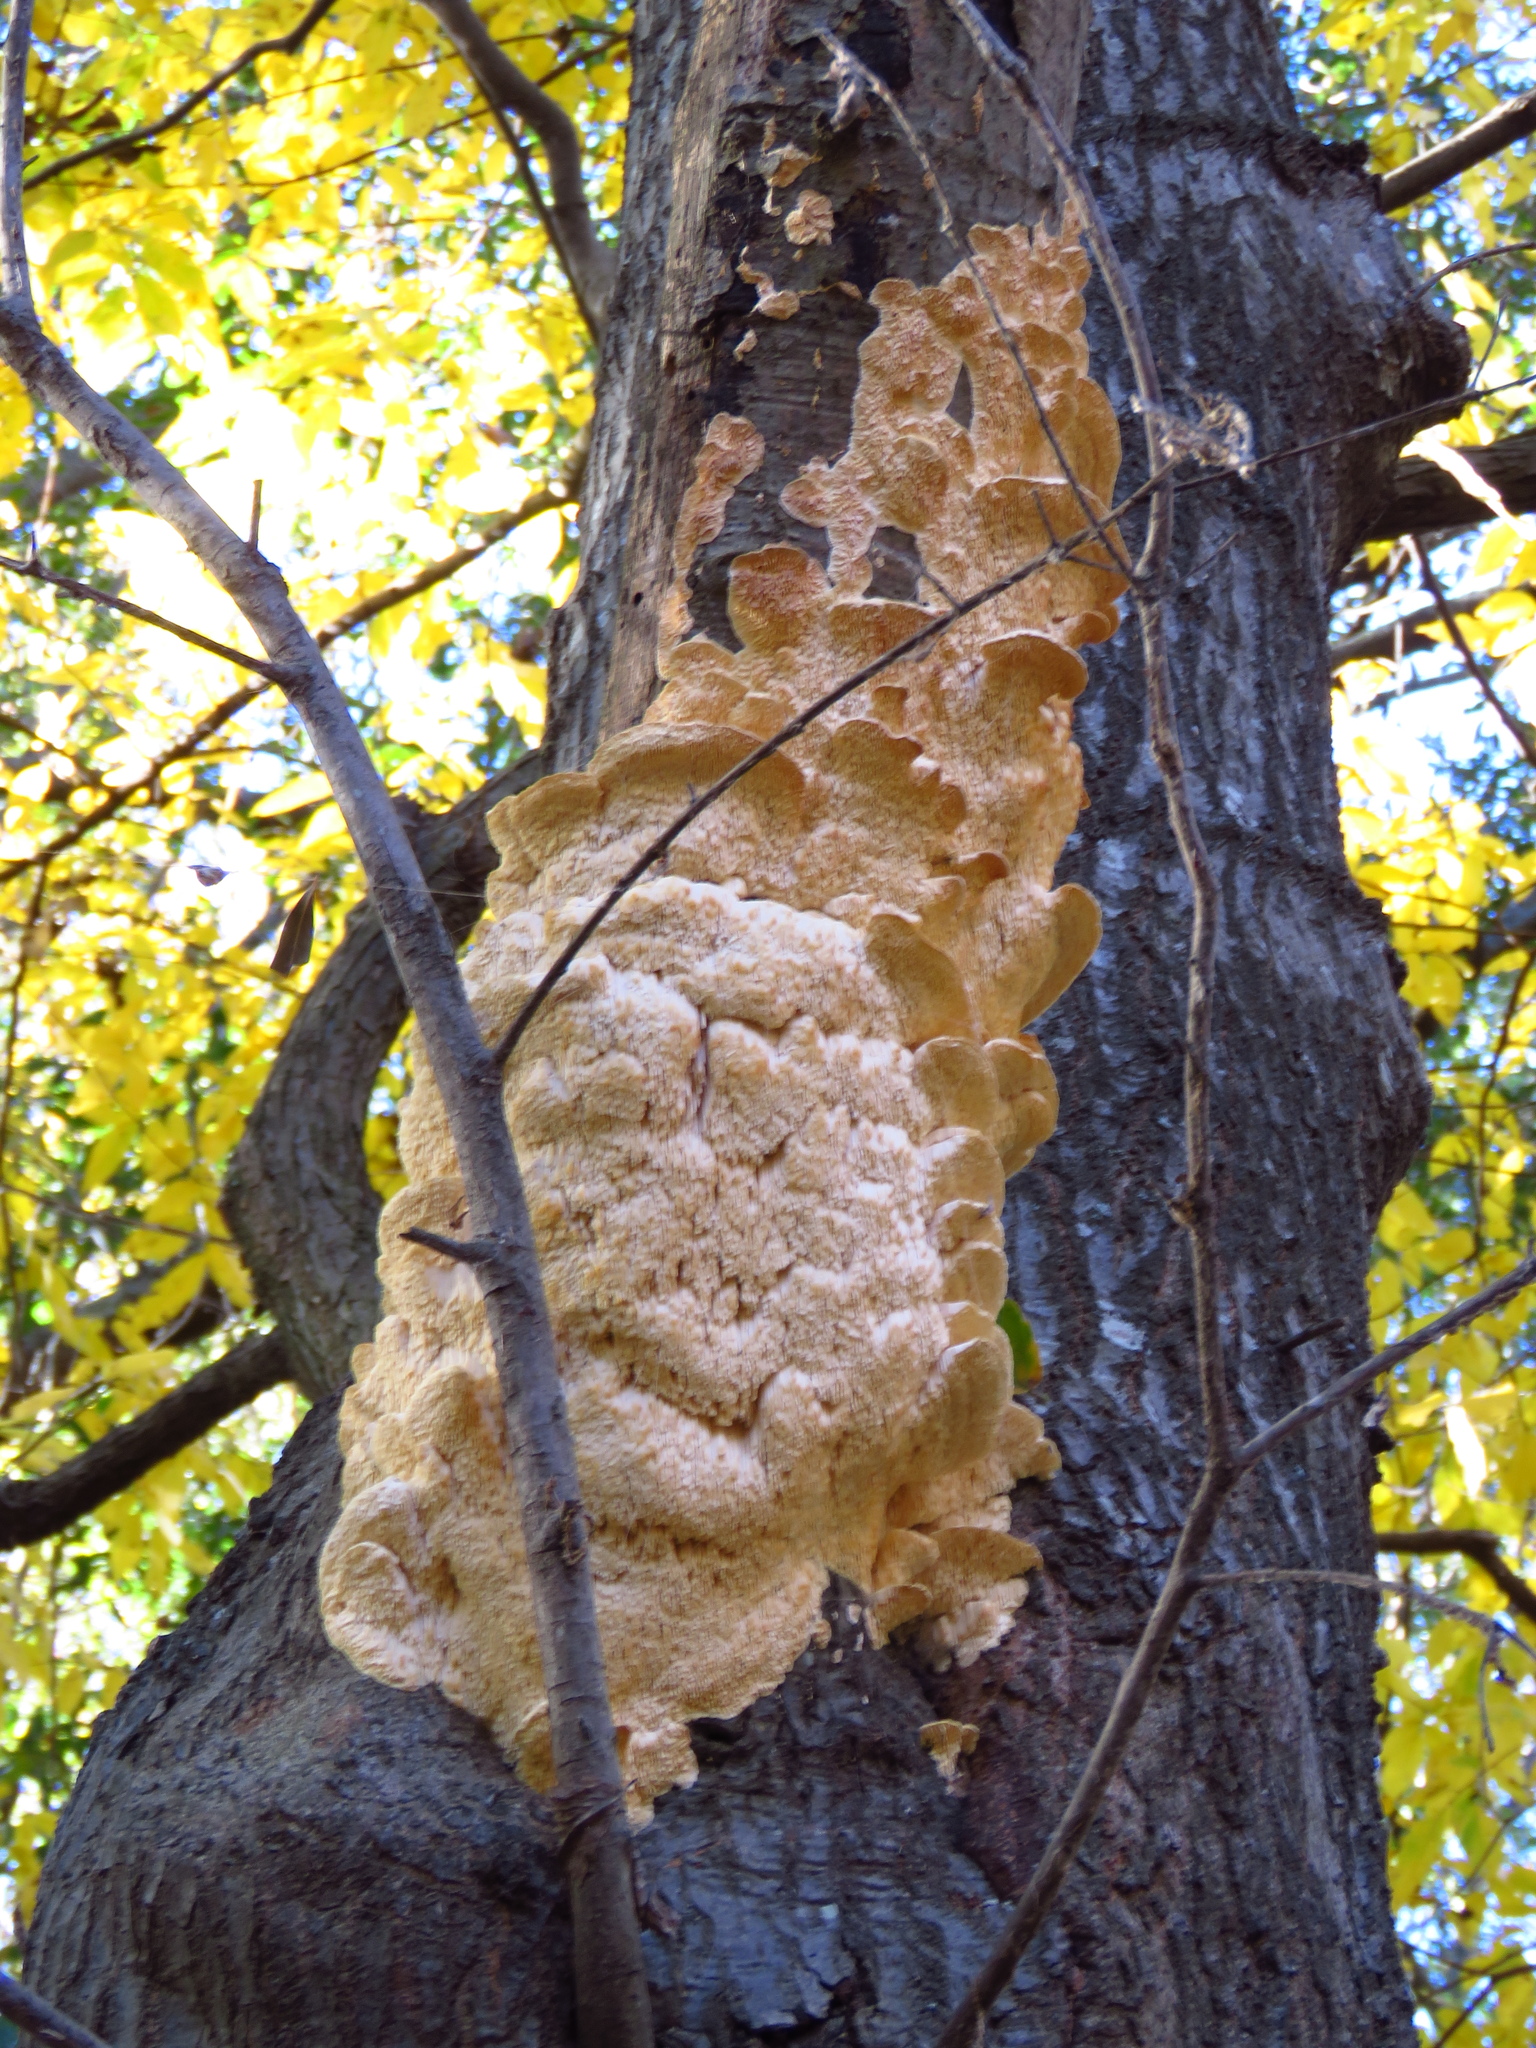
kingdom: Fungi
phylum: Basidiomycota
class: Agaricomycetes
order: Polyporales
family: Meruliaceae
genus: Irpiciporus
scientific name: Irpiciporus pachyodon
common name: Marshmallow polypore
